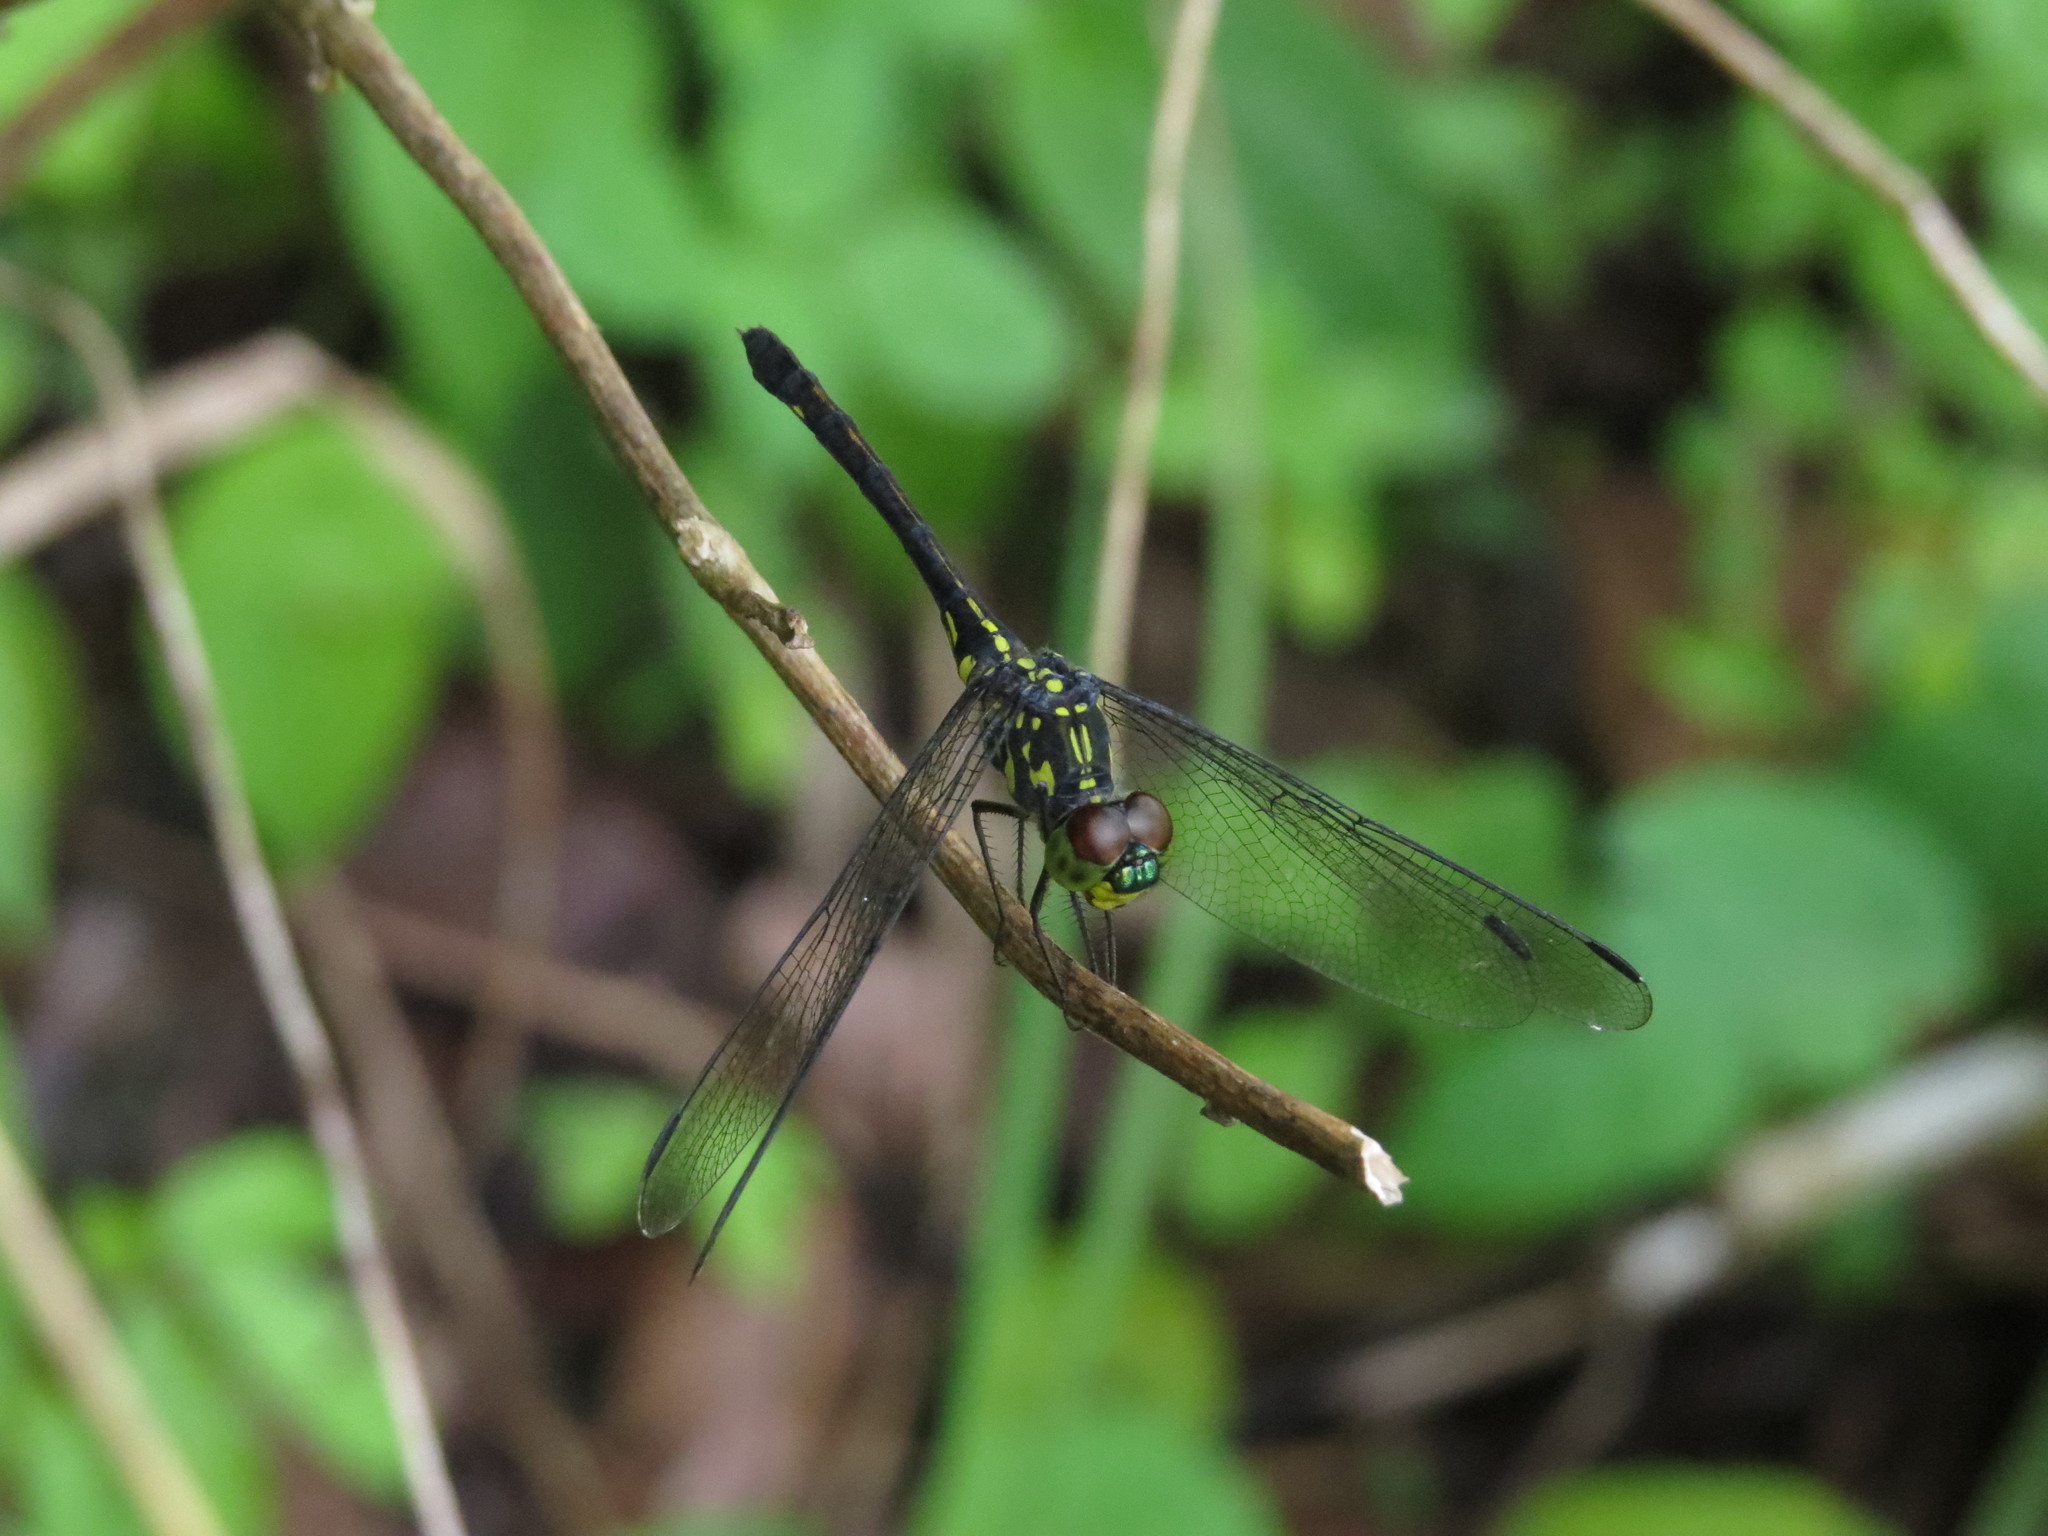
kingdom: Animalia
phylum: Arthropoda
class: Insecta
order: Odonata
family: Libellulidae
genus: Agrionoptera
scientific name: Agrionoptera insignis
